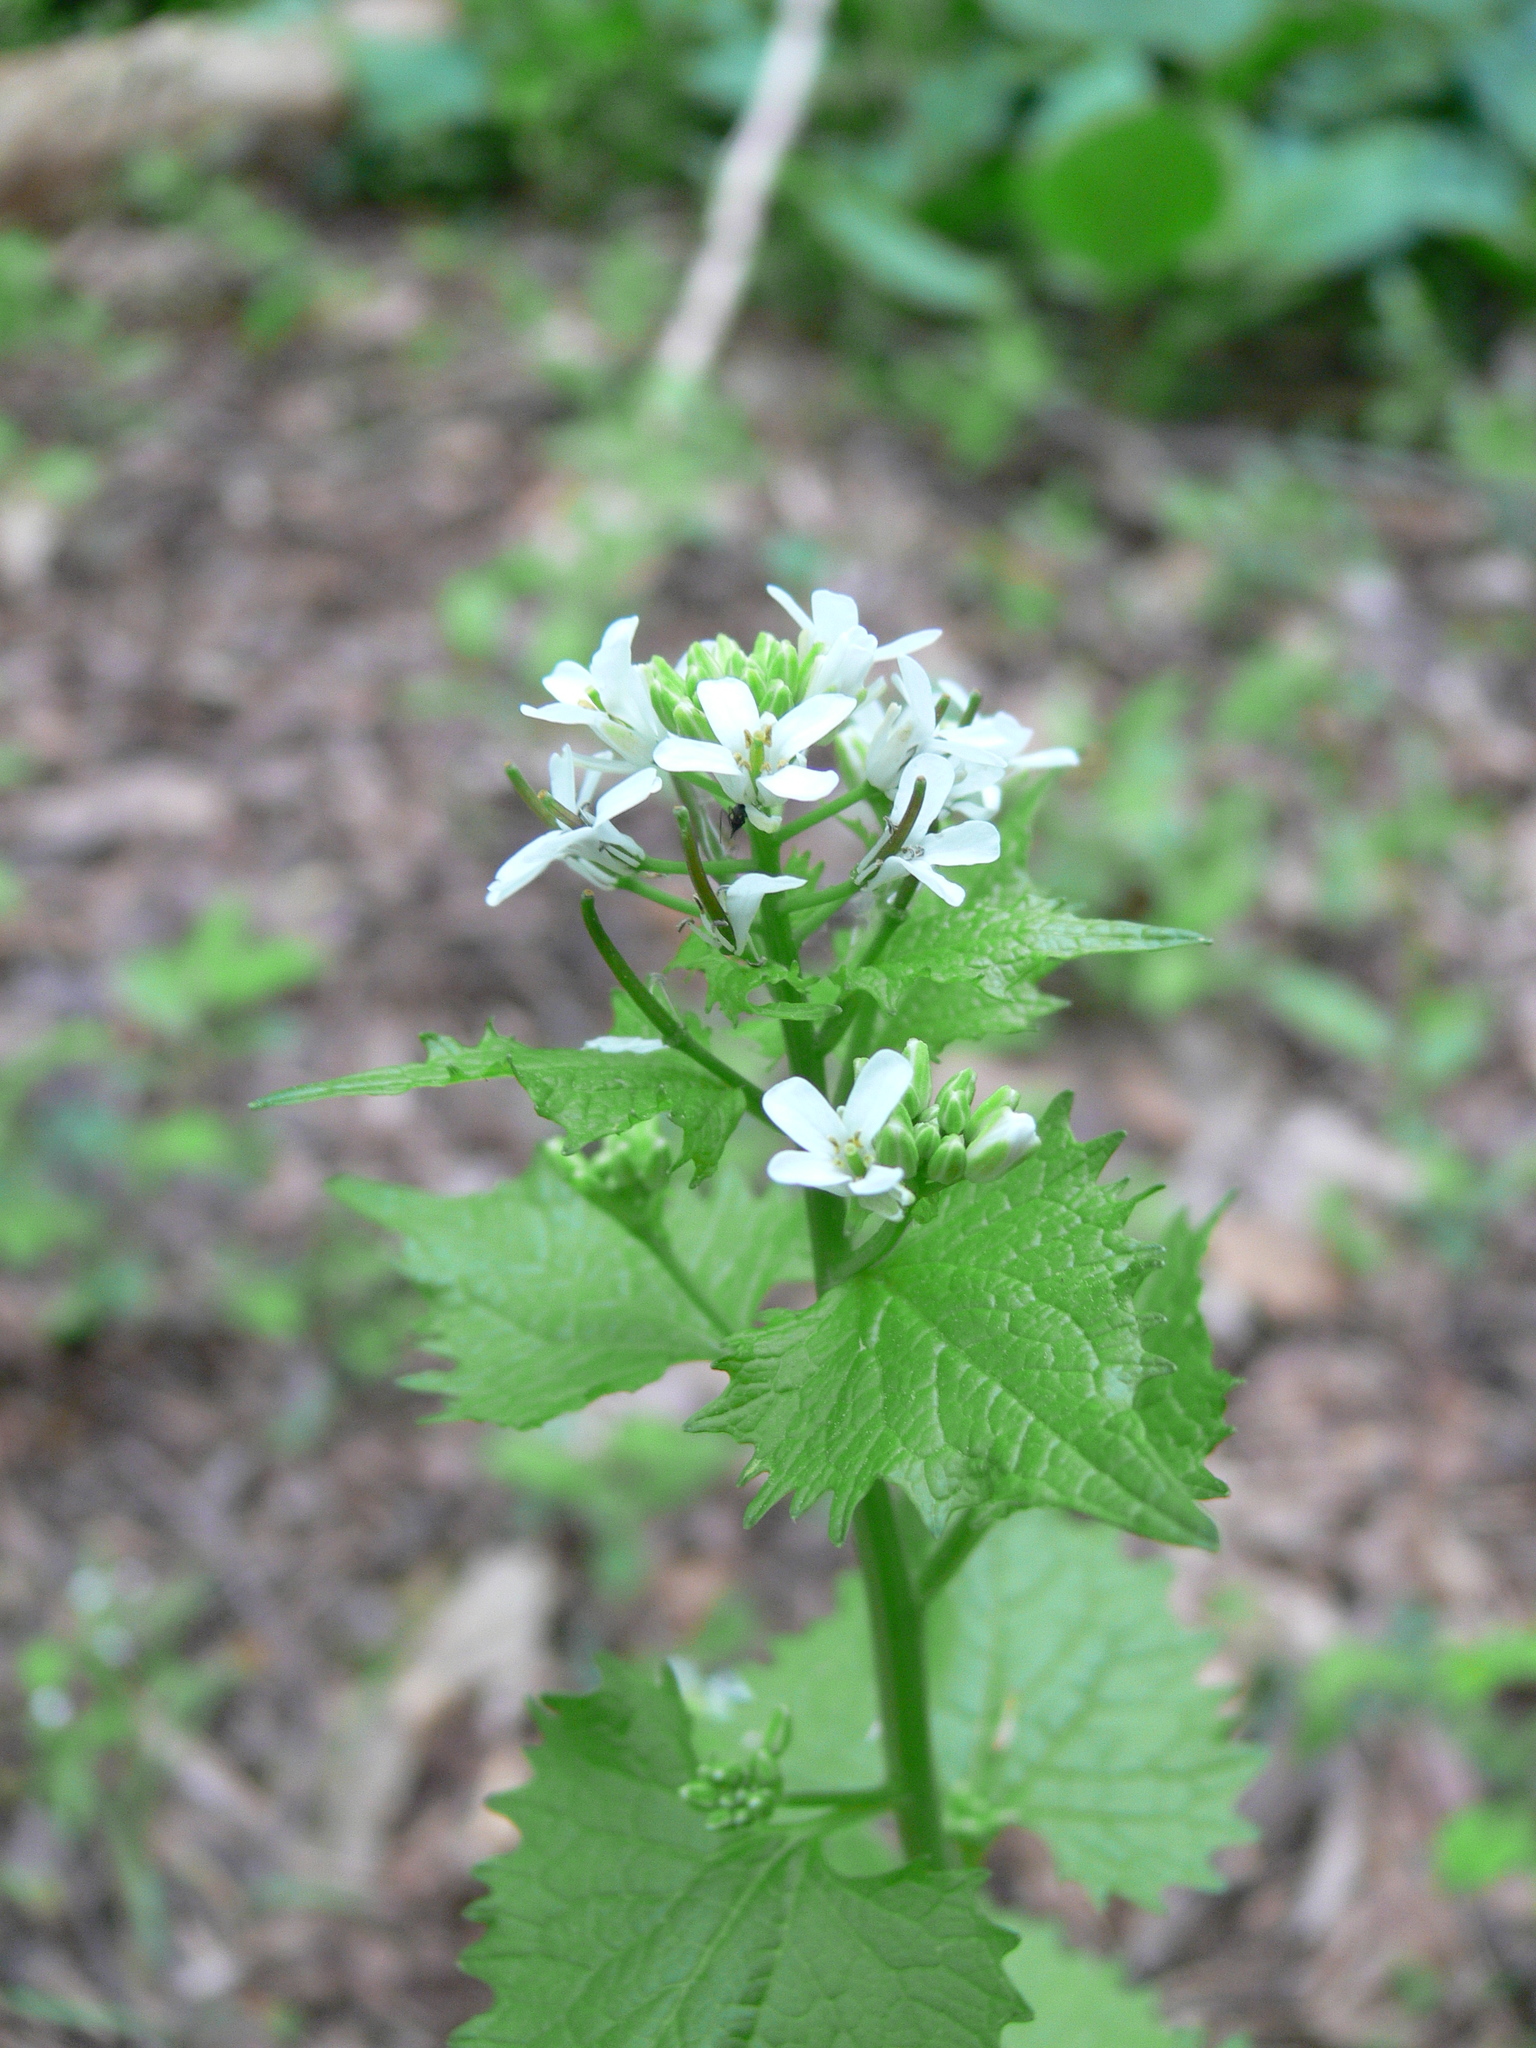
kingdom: Plantae
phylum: Tracheophyta
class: Magnoliopsida
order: Brassicales
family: Brassicaceae
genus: Alliaria
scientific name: Alliaria petiolata
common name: Garlic mustard
